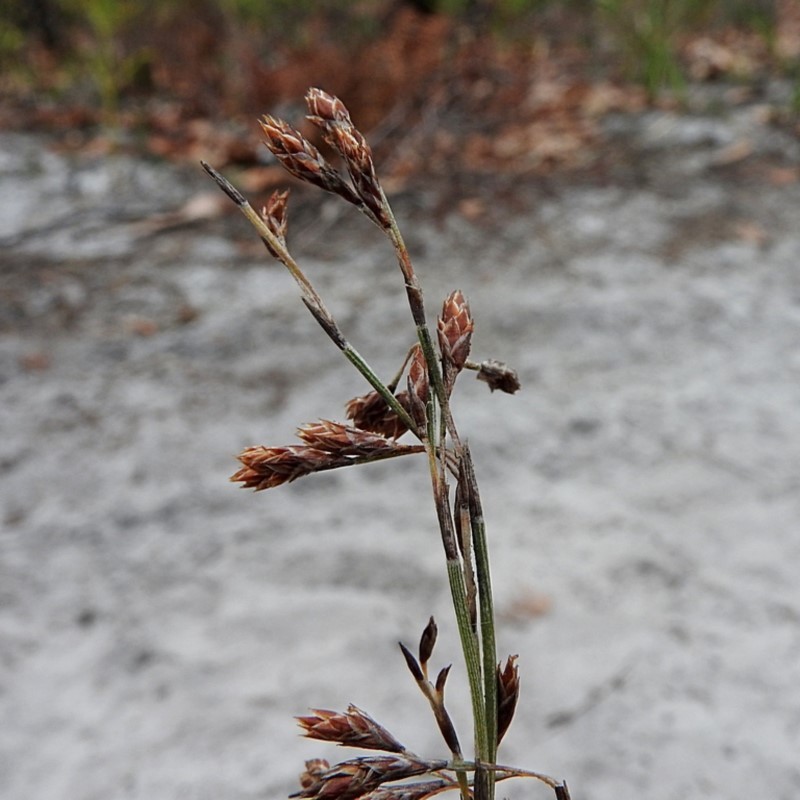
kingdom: Plantae
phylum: Tracheophyta
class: Liliopsida
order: Poales
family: Restionaceae
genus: Hypolaena
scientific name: Hypolaena fastigiata
